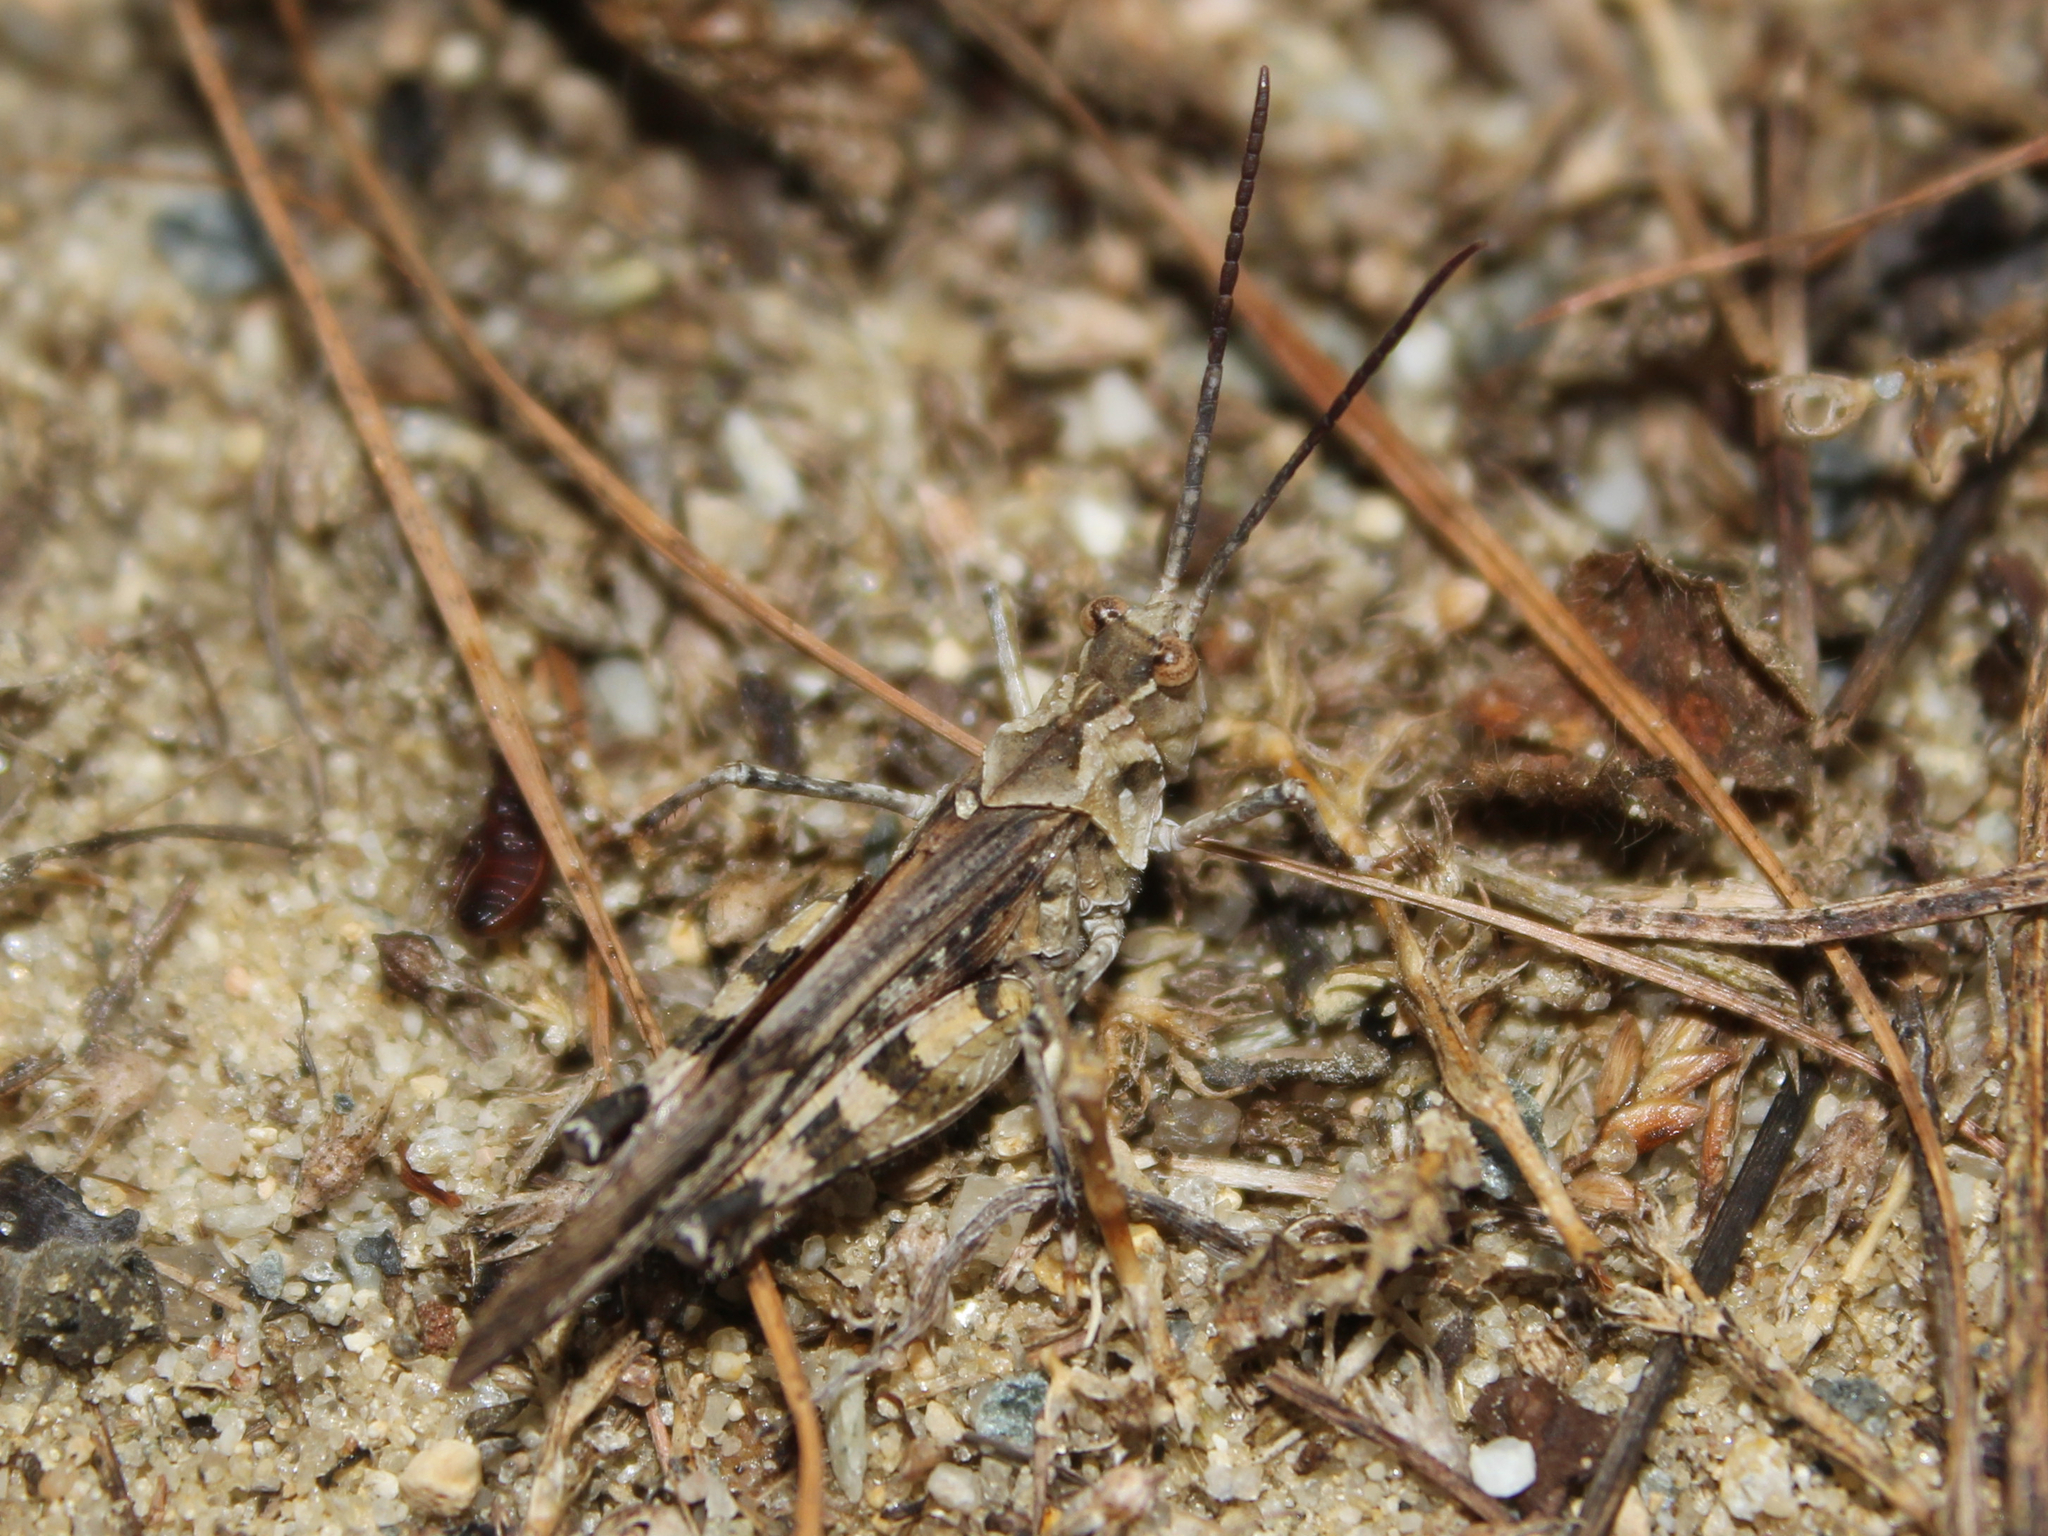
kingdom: Animalia
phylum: Arthropoda
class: Insecta
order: Orthoptera
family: Acrididae
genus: Psinidia
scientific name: Psinidia fenestralis
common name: Long-horned locust
